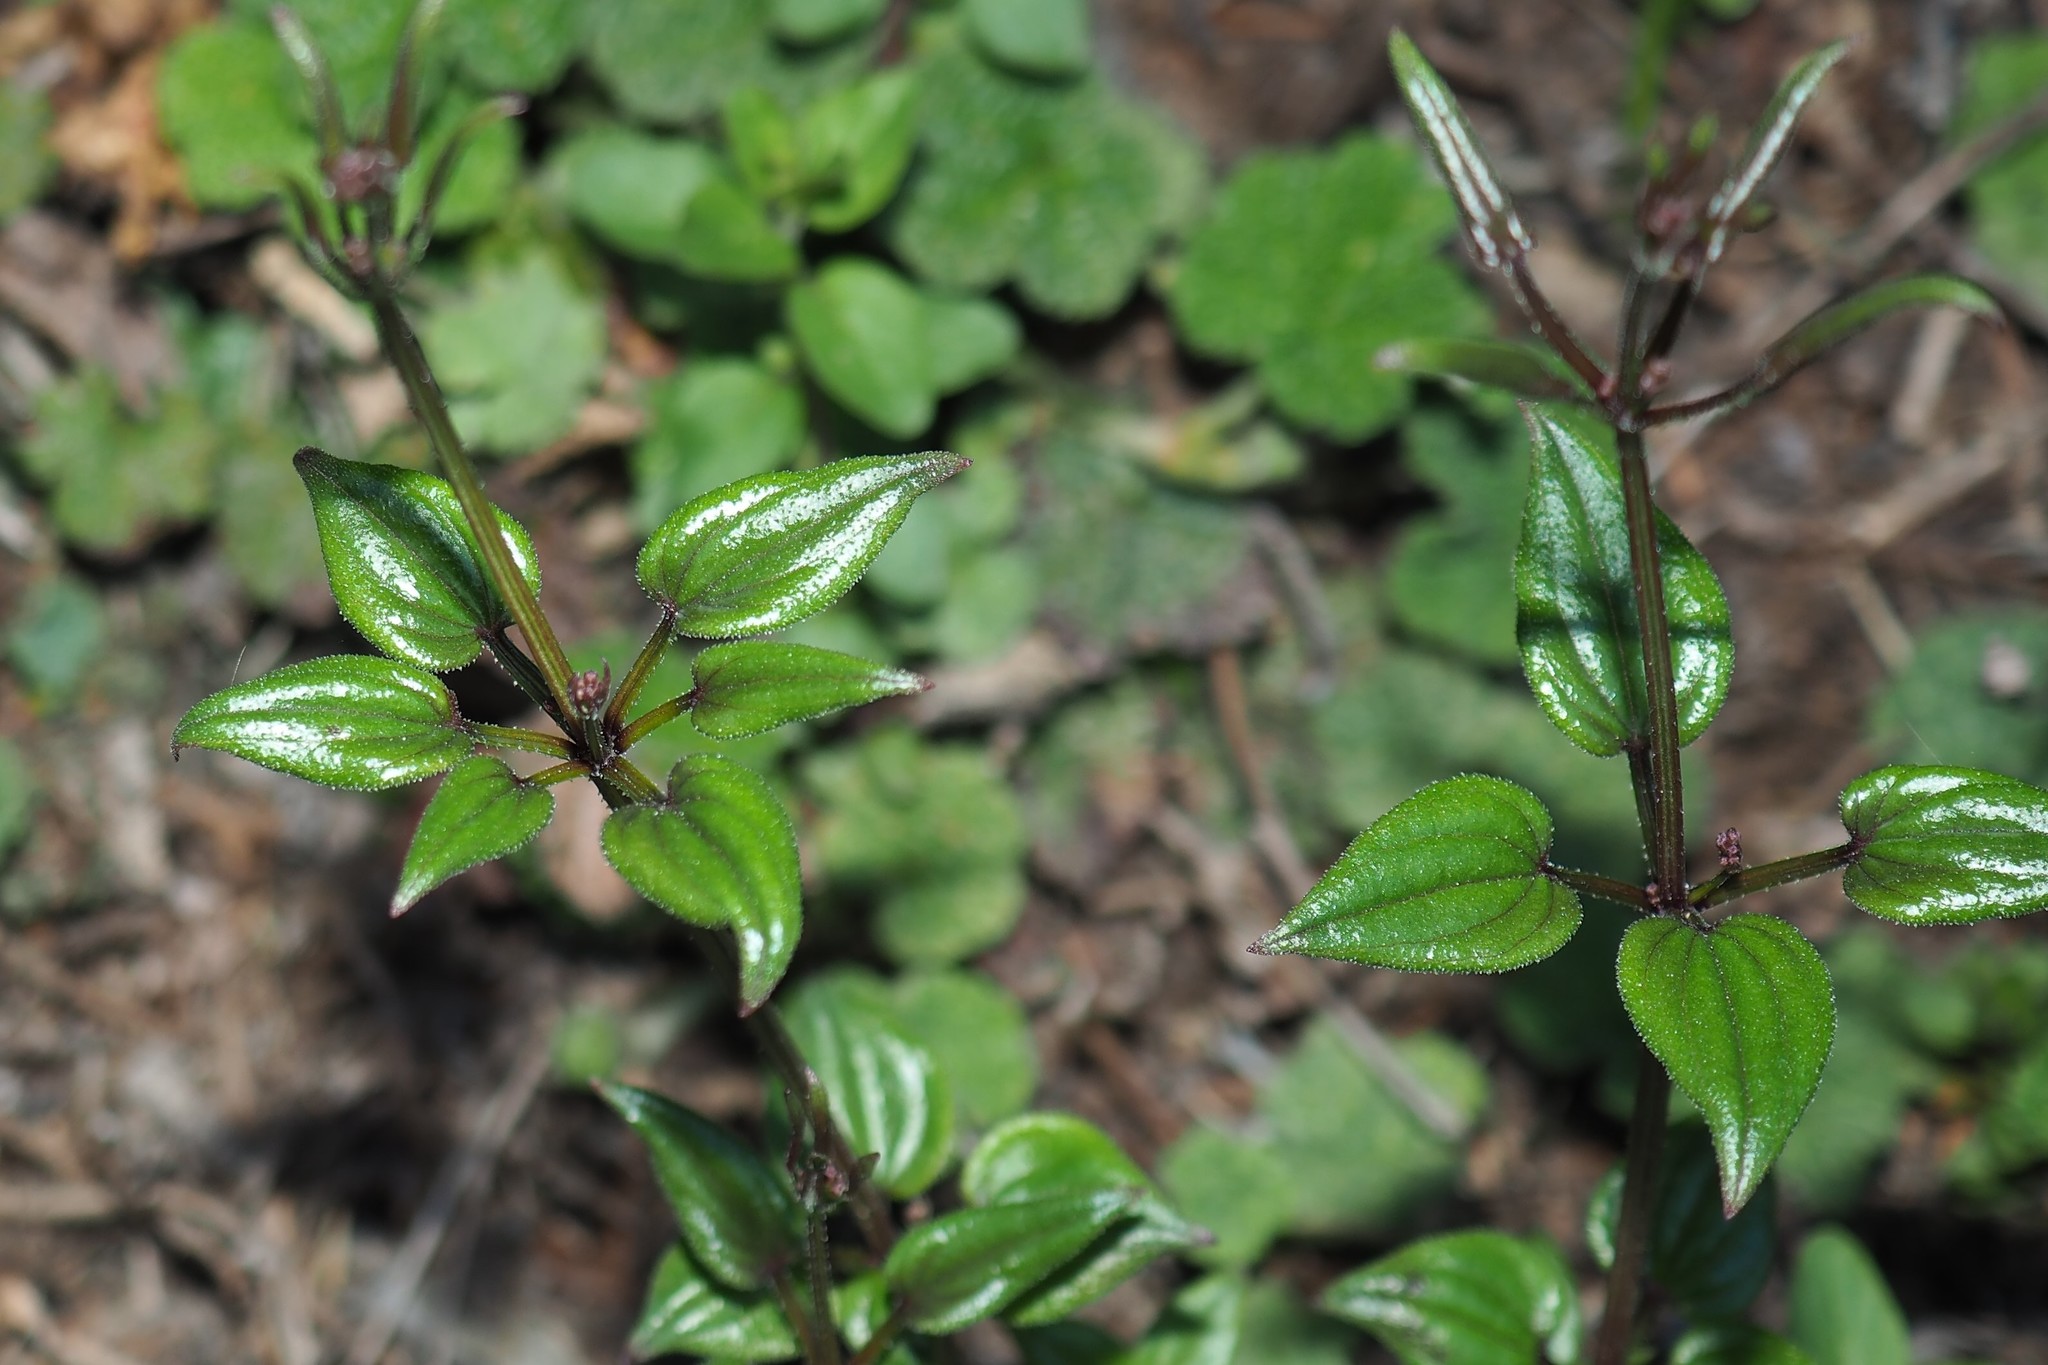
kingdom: Plantae
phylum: Tracheophyta
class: Magnoliopsida
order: Gentianales
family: Rubiaceae
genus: Rubia
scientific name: Rubia argyi
